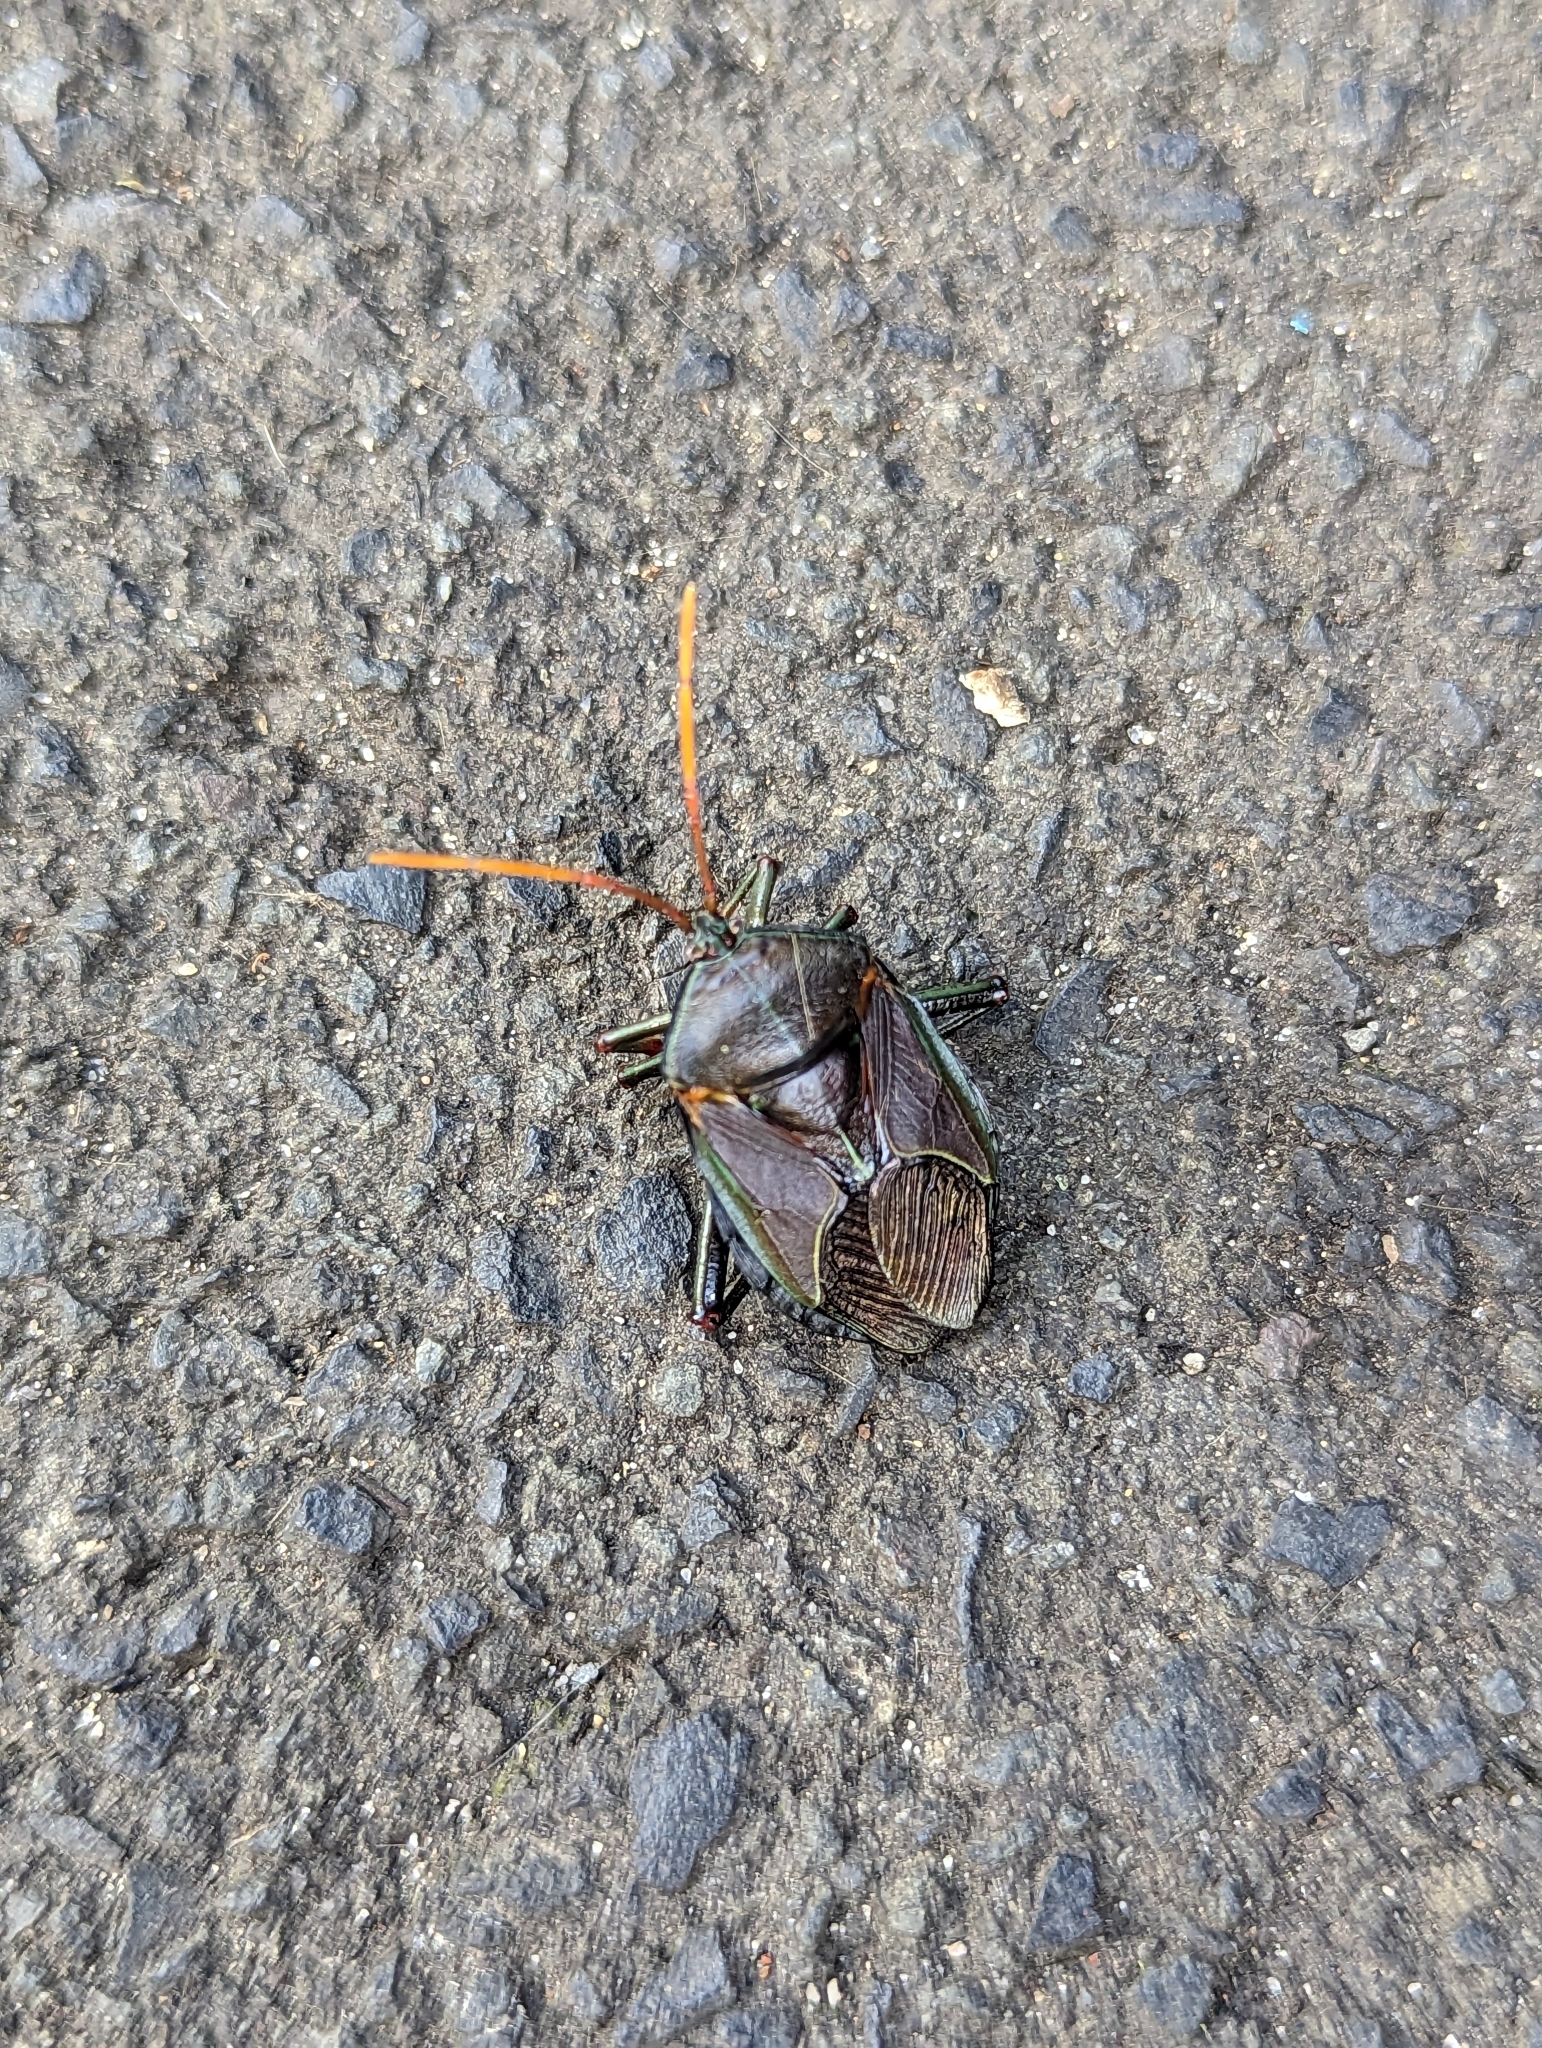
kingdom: Animalia
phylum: Arthropoda
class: Insecta
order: Hemiptera
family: Tessaratomidae
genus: Musgraveia
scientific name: Musgraveia sulciventris
